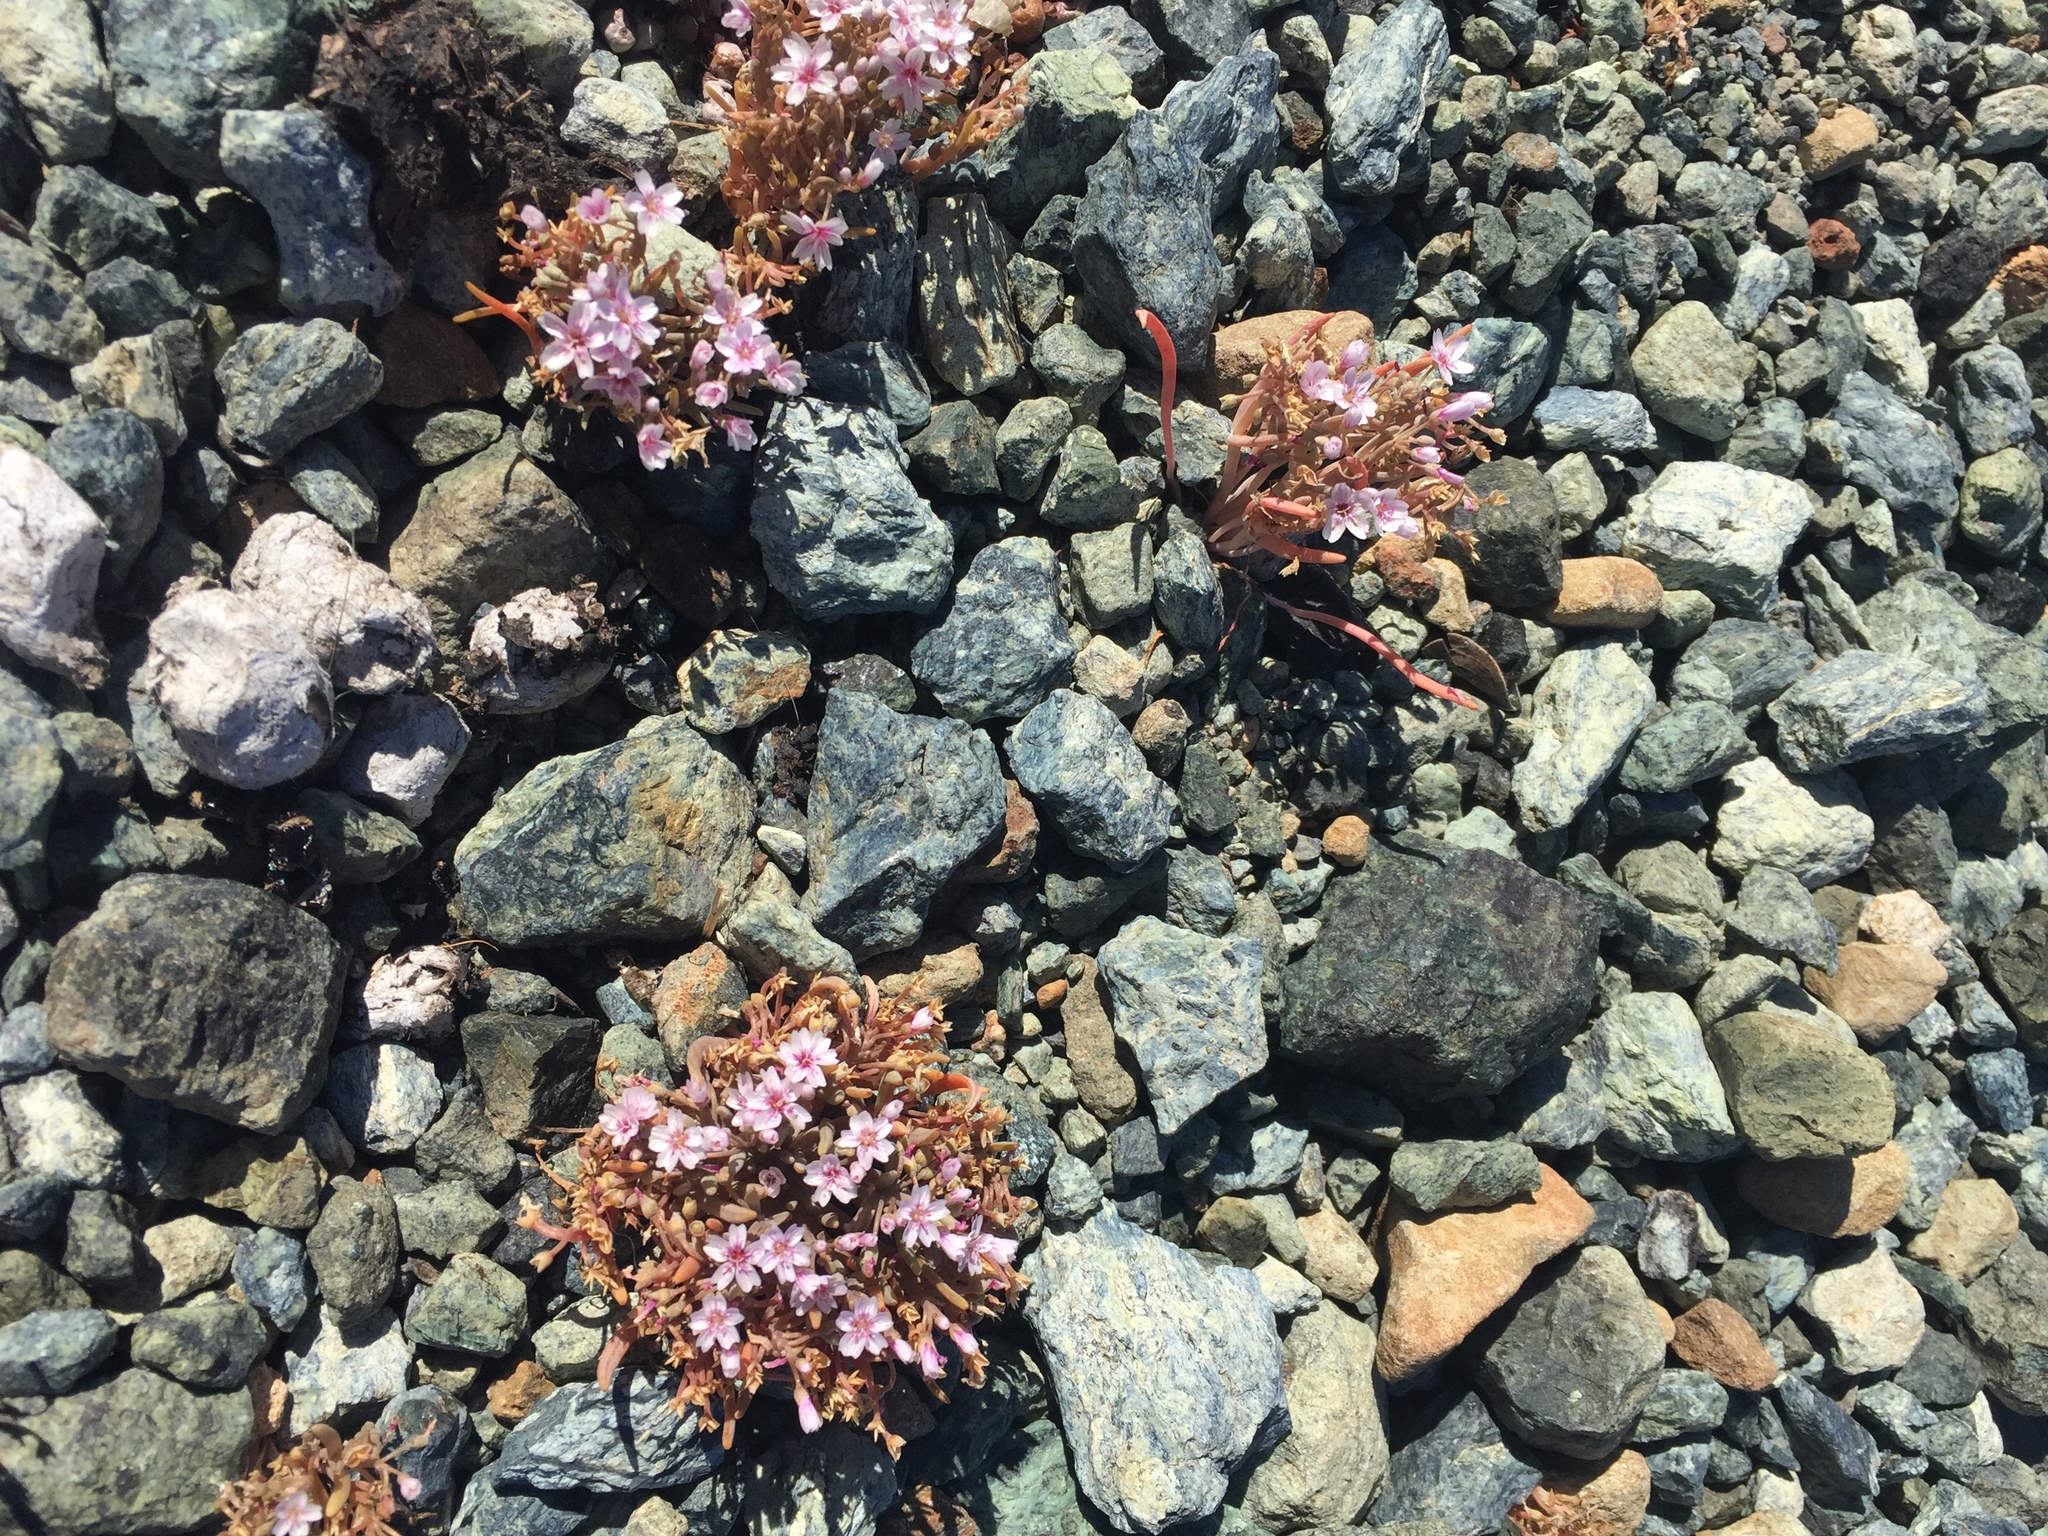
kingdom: Plantae
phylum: Tracheophyta
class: Magnoliopsida
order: Caryophyllales
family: Montiaceae
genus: Claytonia
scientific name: Claytonia exigua
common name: Pale spring beauty
